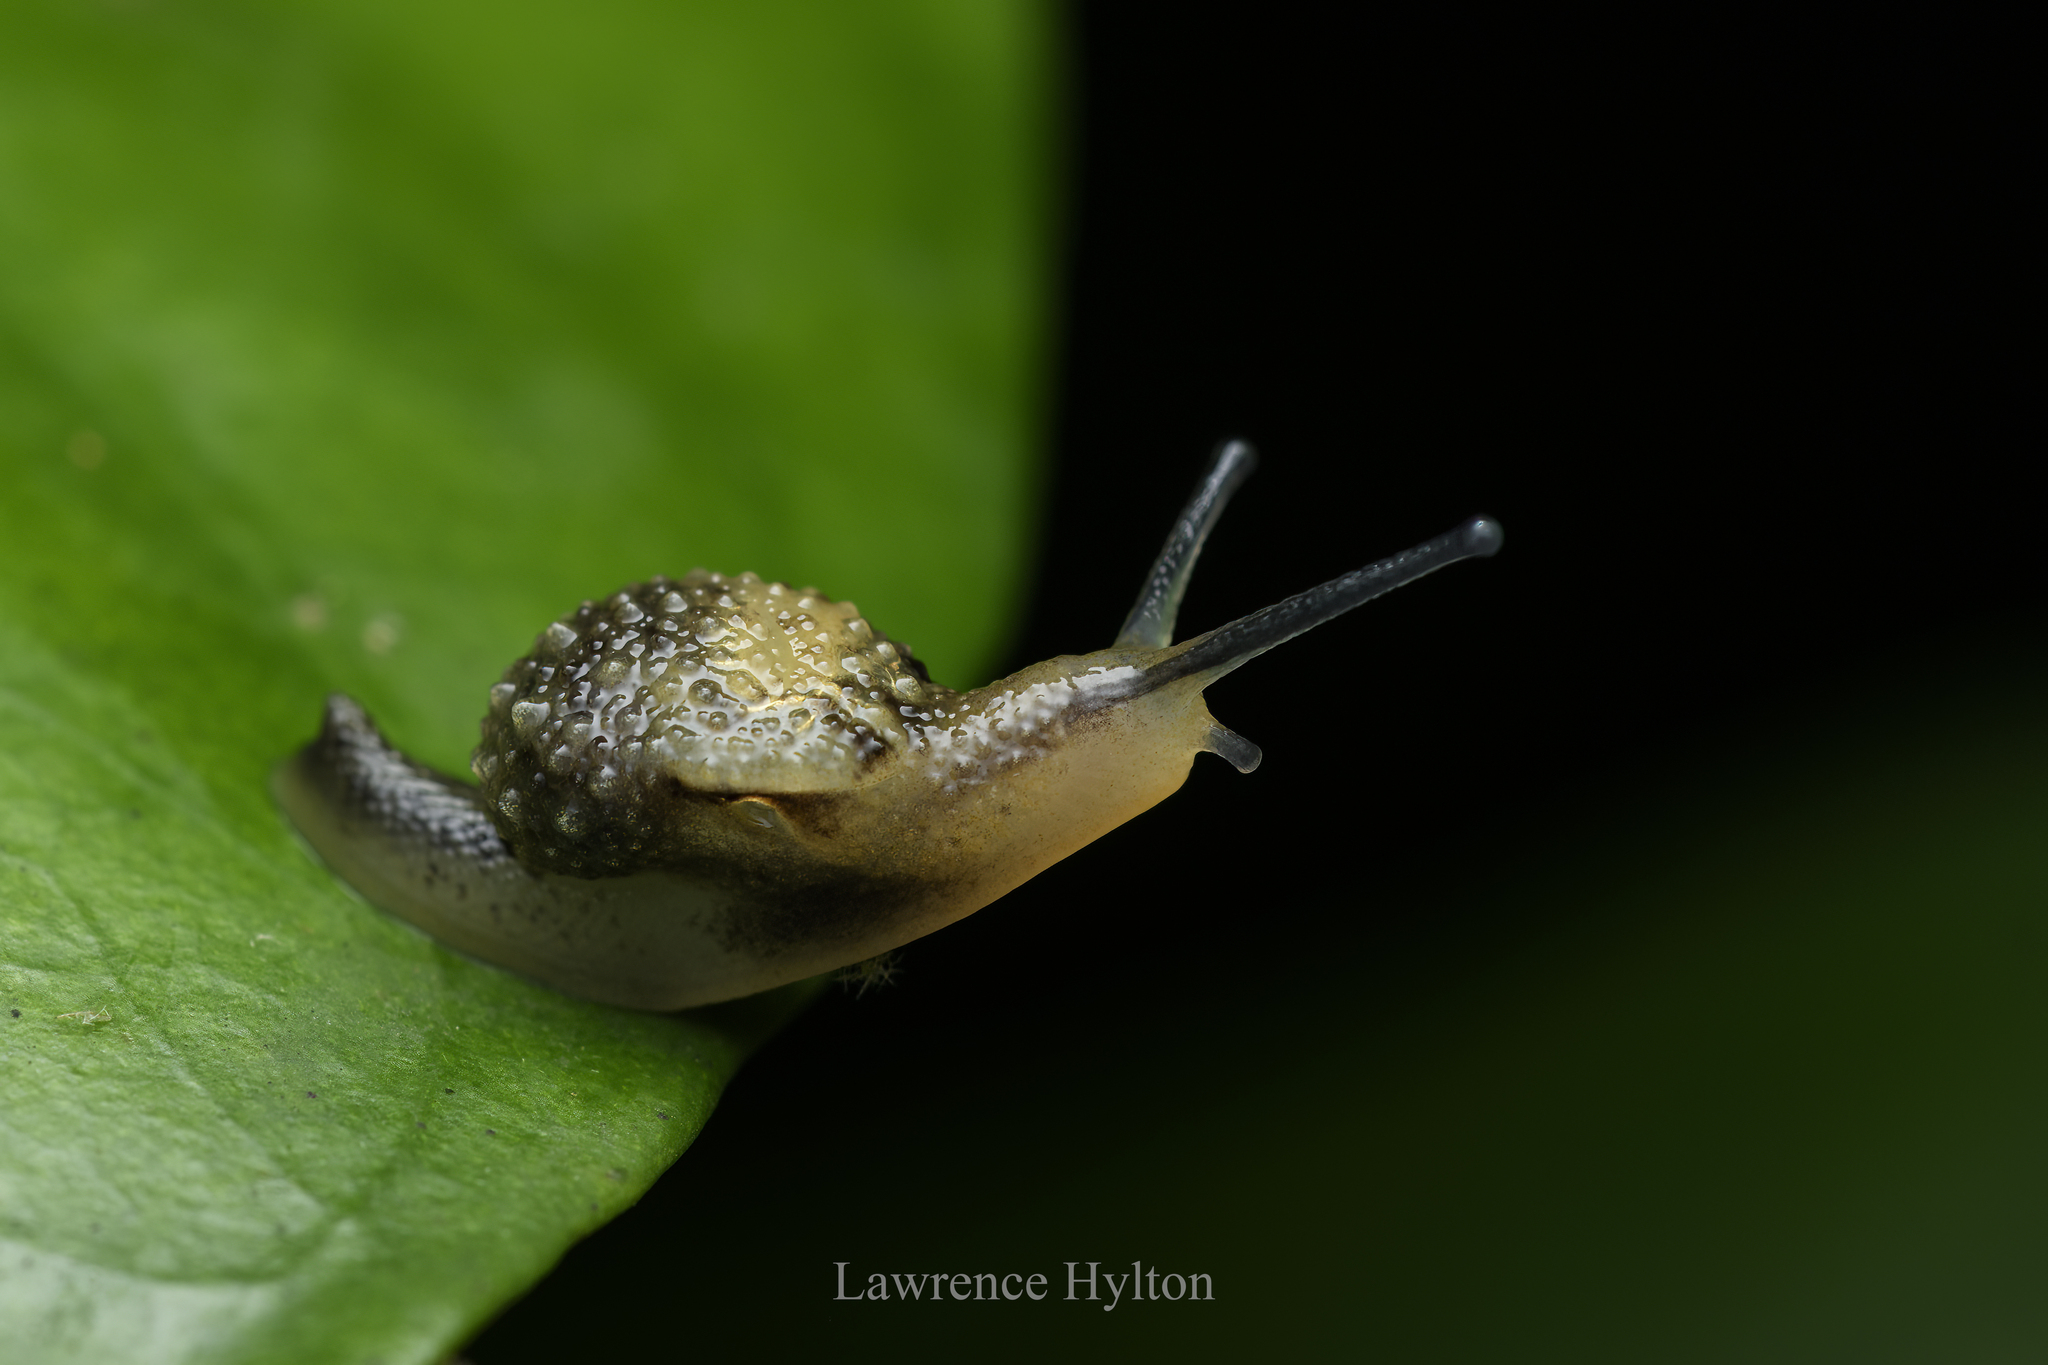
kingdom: Animalia
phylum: Mollusca
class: Gastropoda
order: Stylommatophora
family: Ariophantidae
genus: Megaustenia
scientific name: Megaustenia imperator
